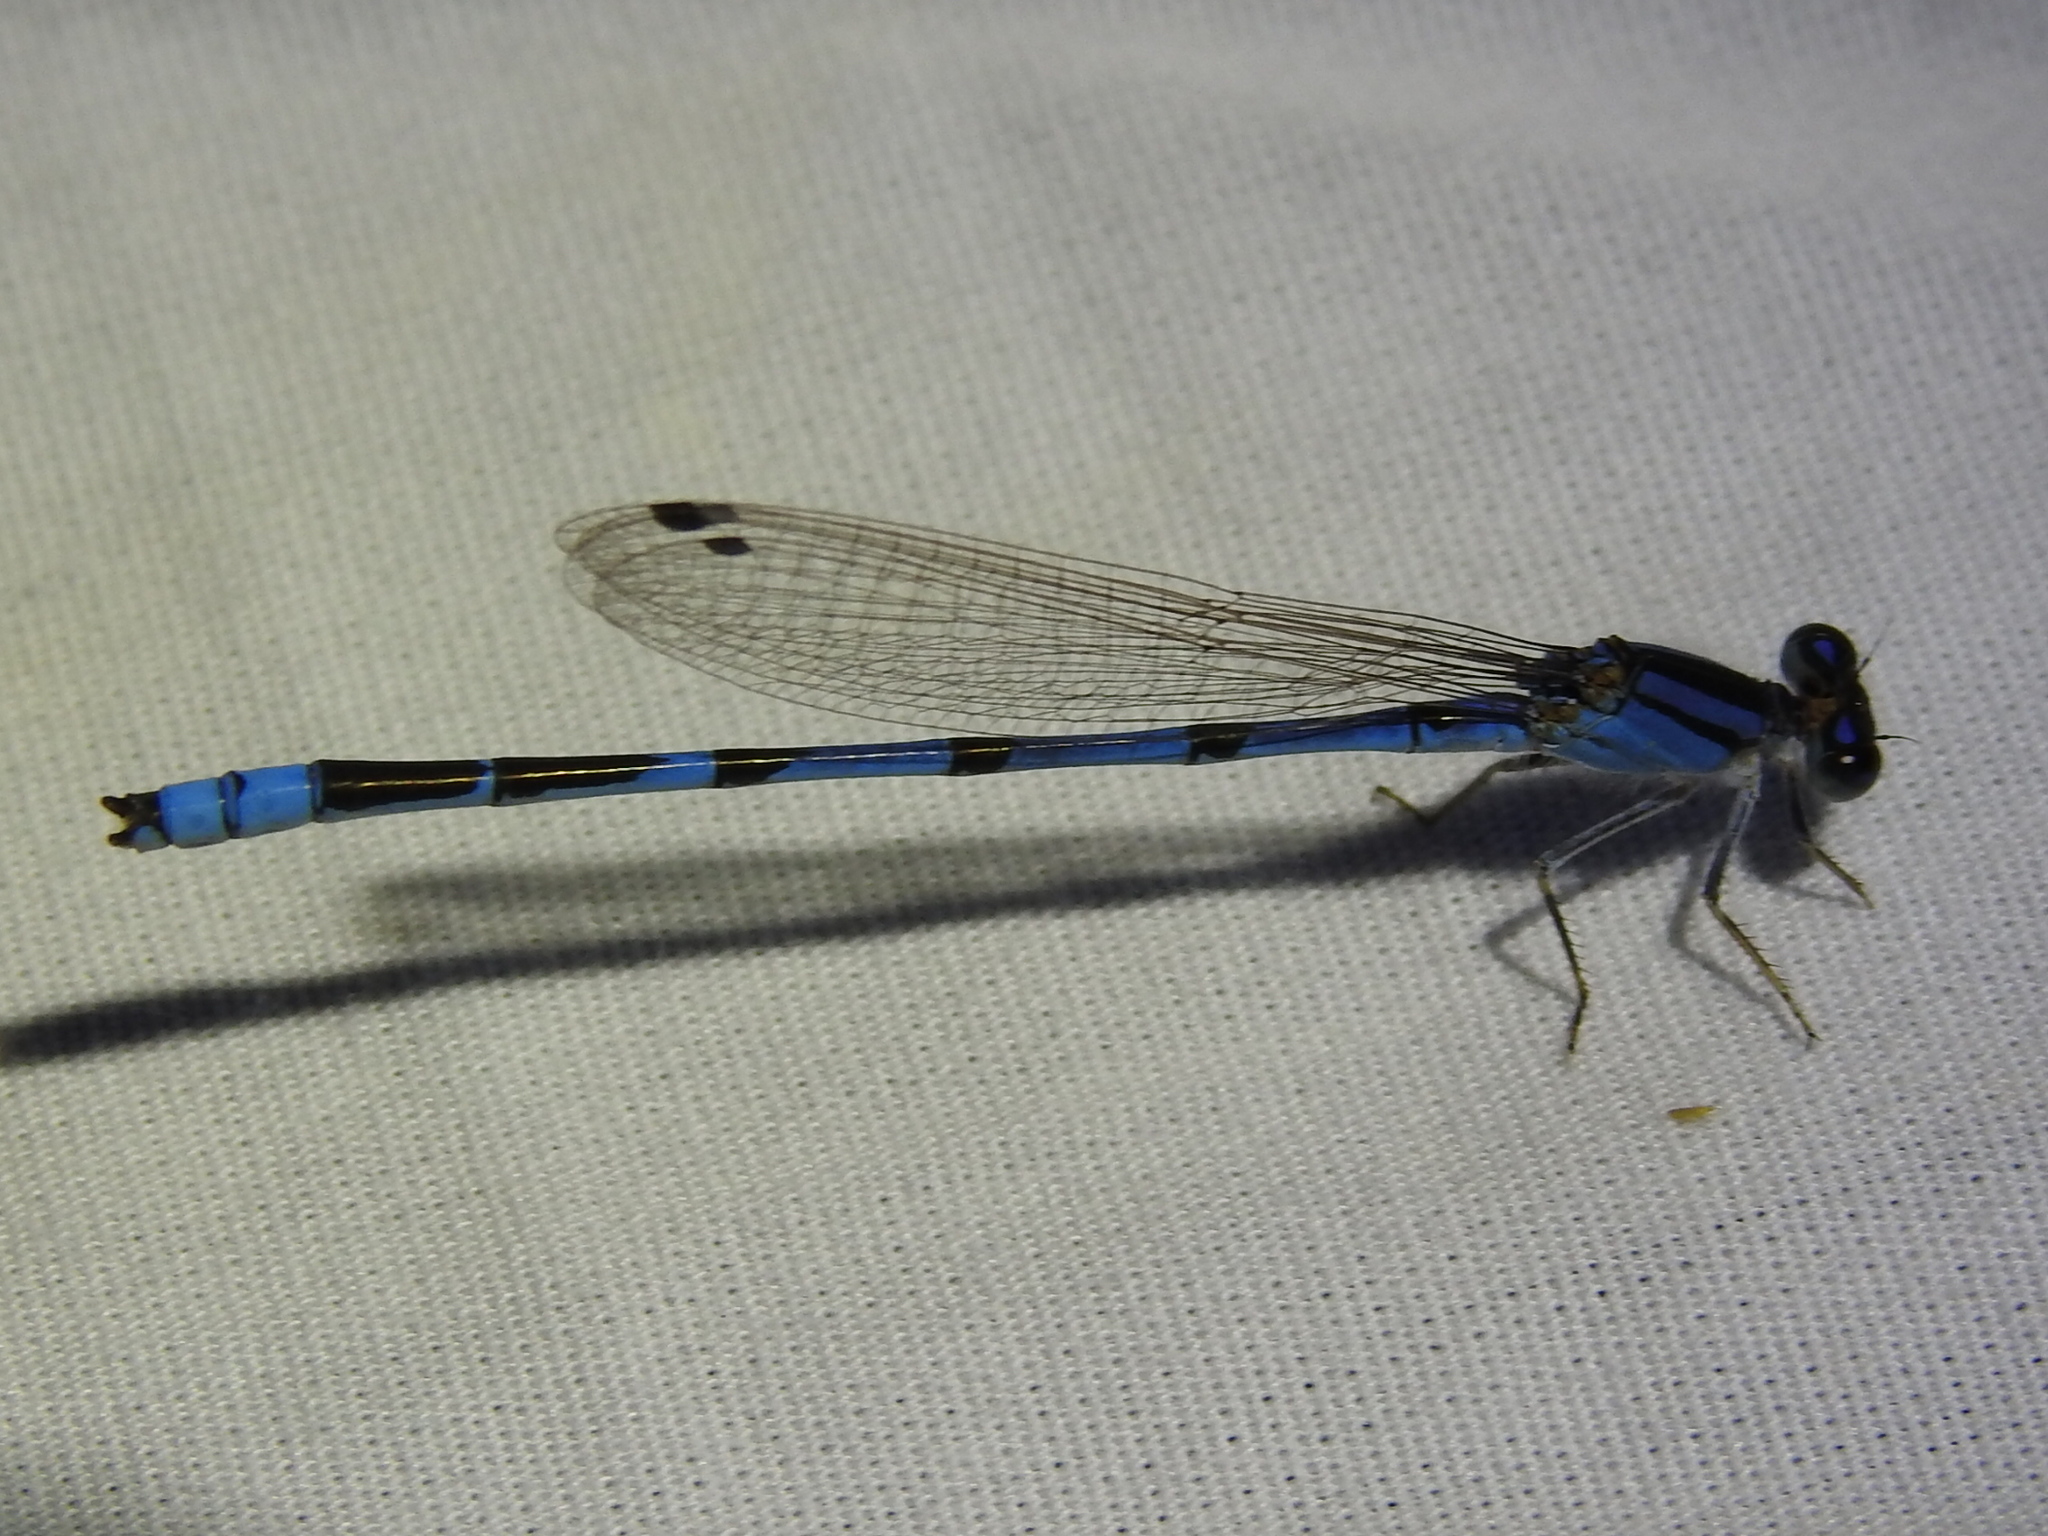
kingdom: Animalia
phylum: Arthropoda
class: Insecta
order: Odonata
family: Coenagrionidae
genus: Enallagma
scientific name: Enallagma civile
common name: Damselfly
